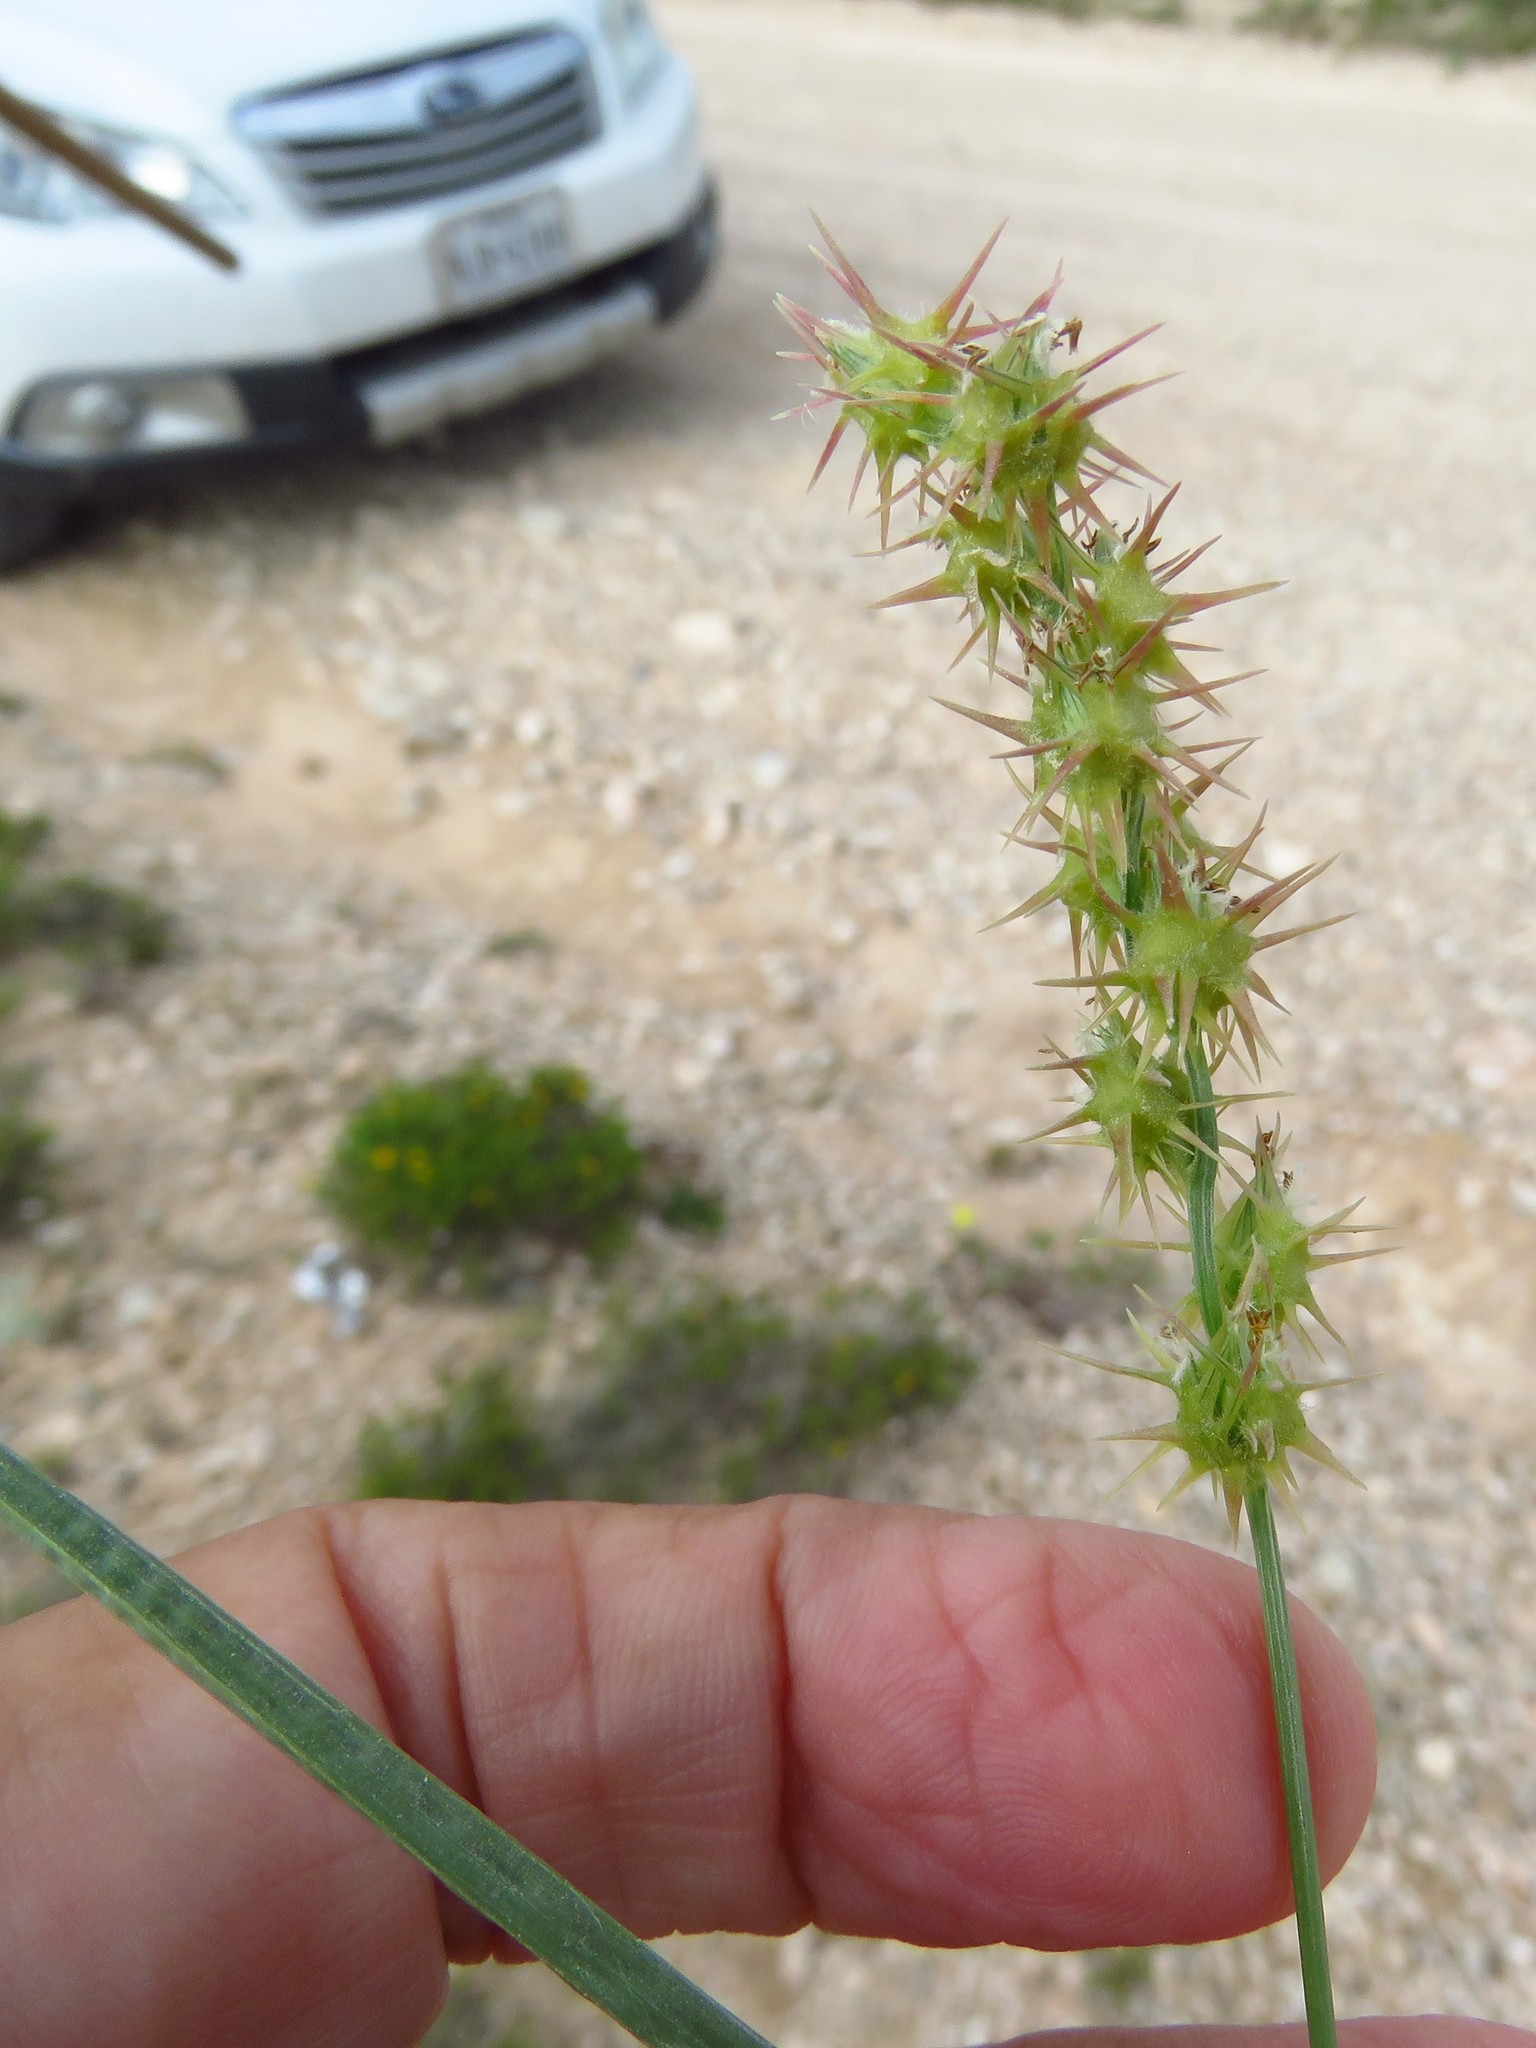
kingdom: Plantae
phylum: Tracheophyta
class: Liliopsida
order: Poales
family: Poaceae
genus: Cenchrus
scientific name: Cenchrus spinifex
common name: Coast sandbur
